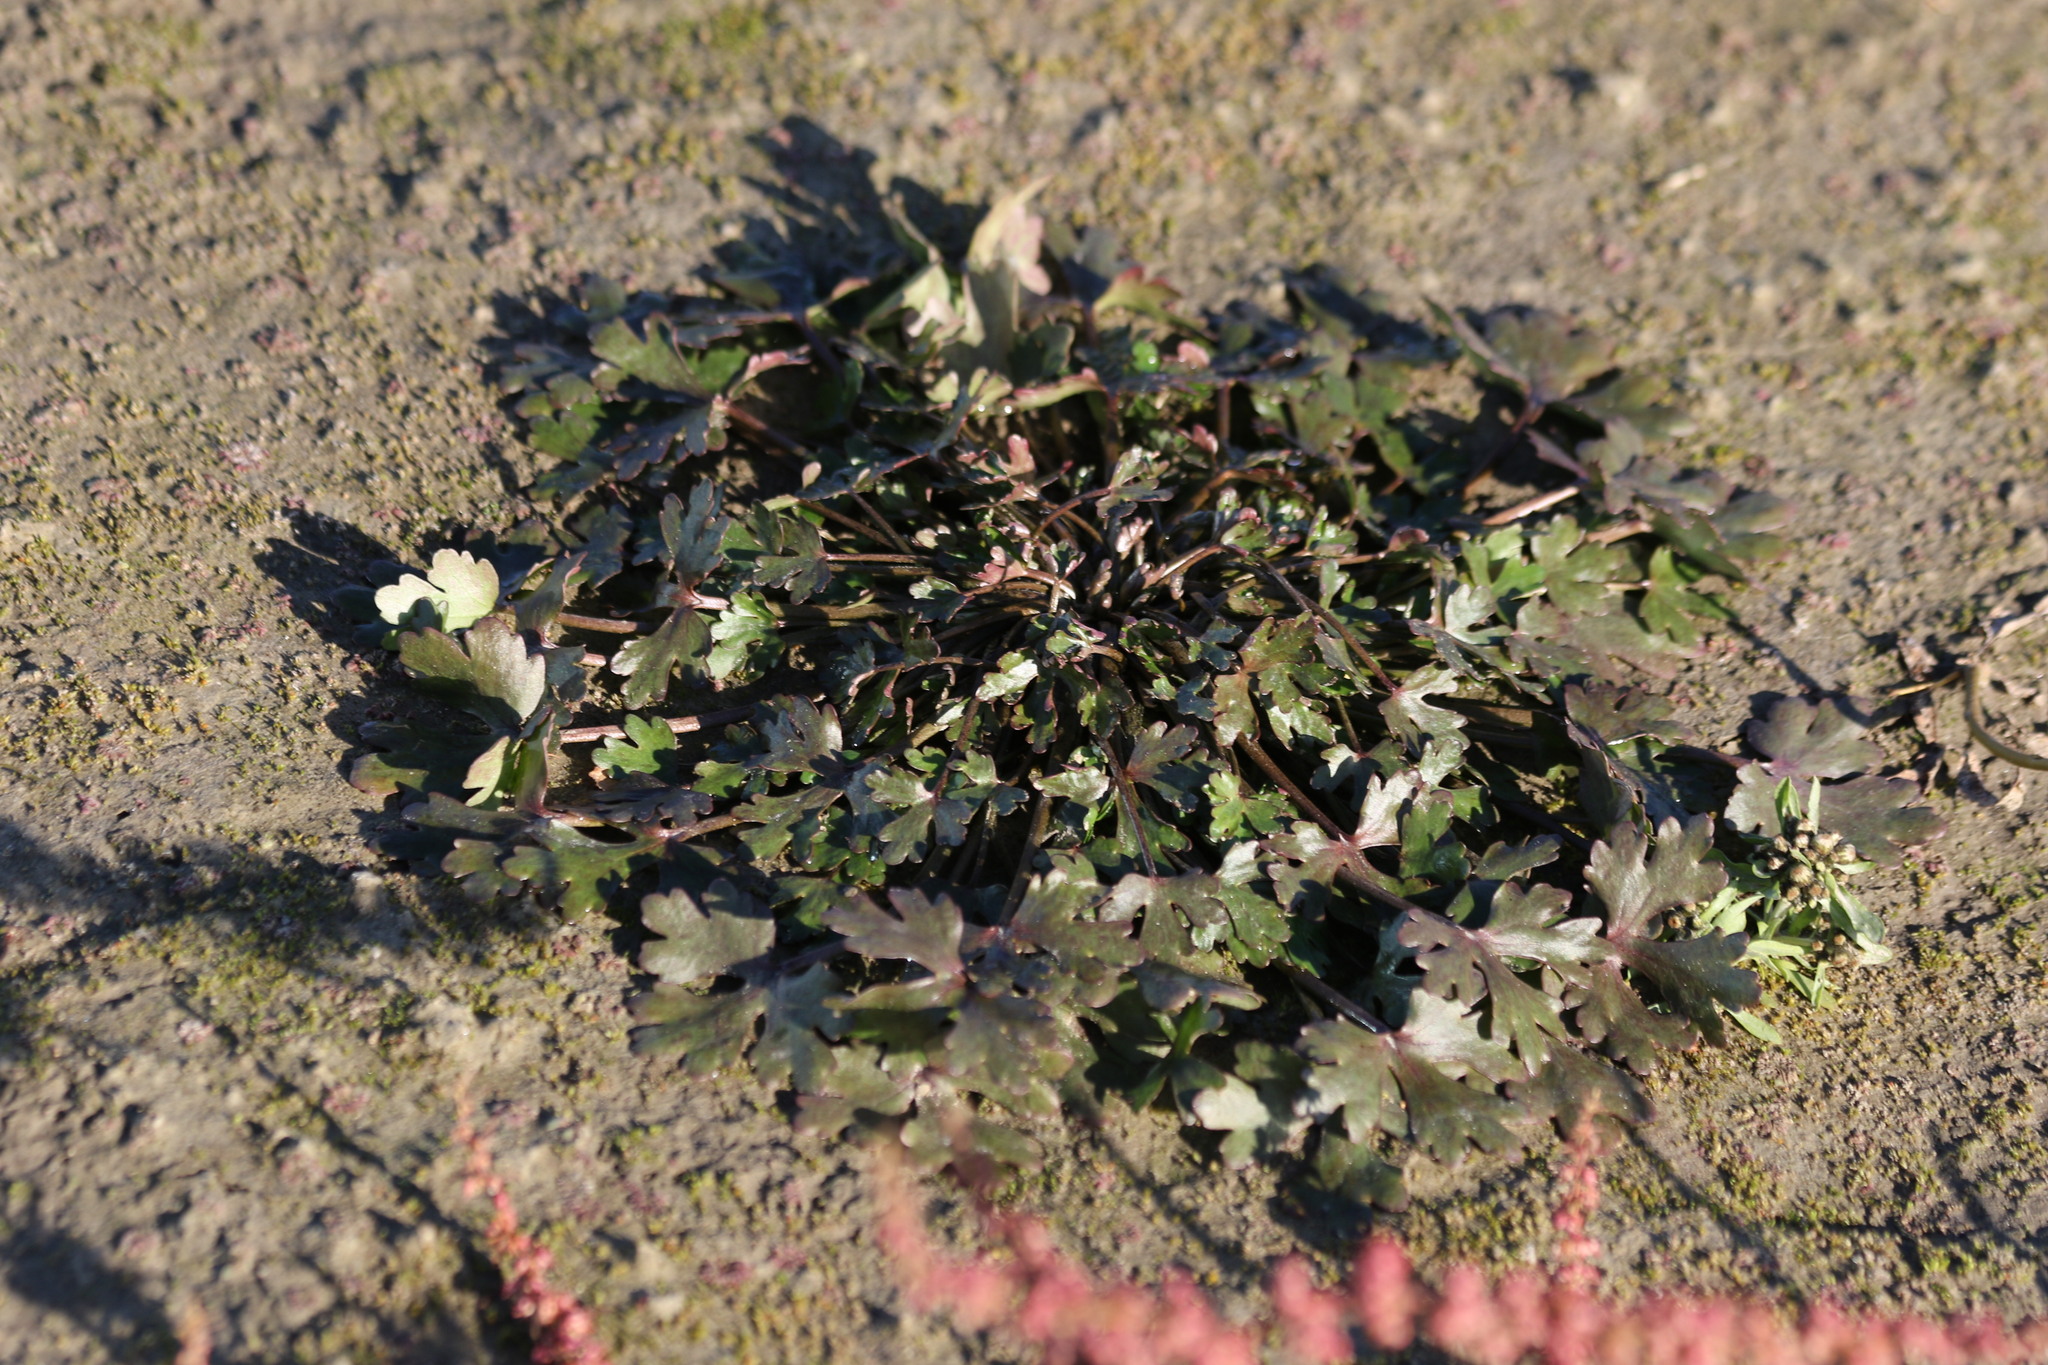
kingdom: Plantae
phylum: Tracheophyta
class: Magnoliopsida
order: Ranunculales
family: Ranunculaceae
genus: Ranunculus
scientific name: Ranunculus sceleratus
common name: Celery-leaved buttercup
